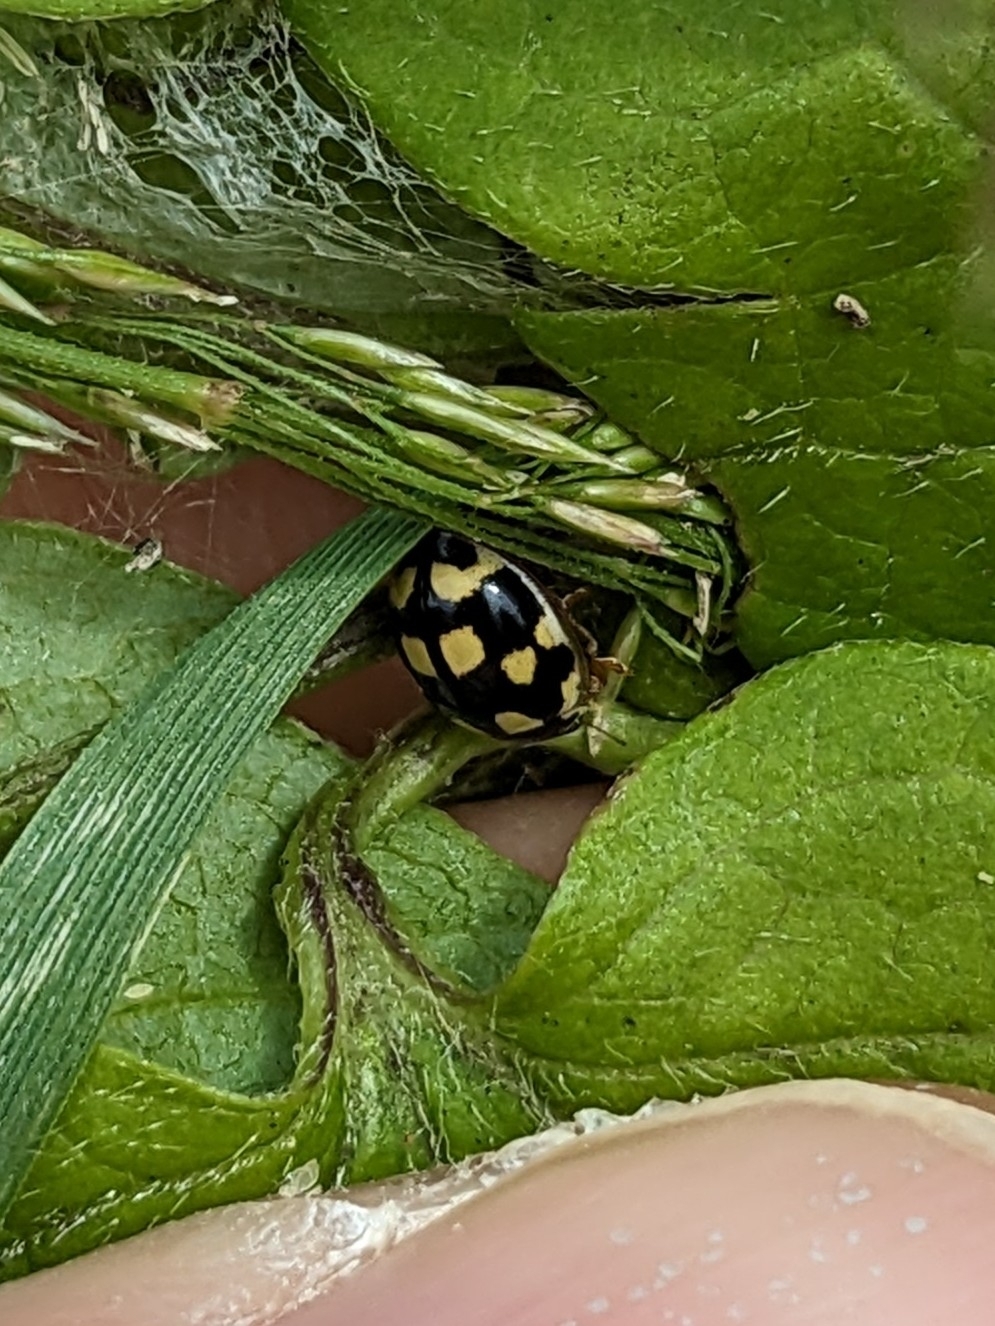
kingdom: Animalia
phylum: Arthropoda
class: Insecta
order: Coleoptera
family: Coccinellidae
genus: Propylaea
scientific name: Propylaea quatuordecimpunctata
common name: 14-spotted ladybird beetle
